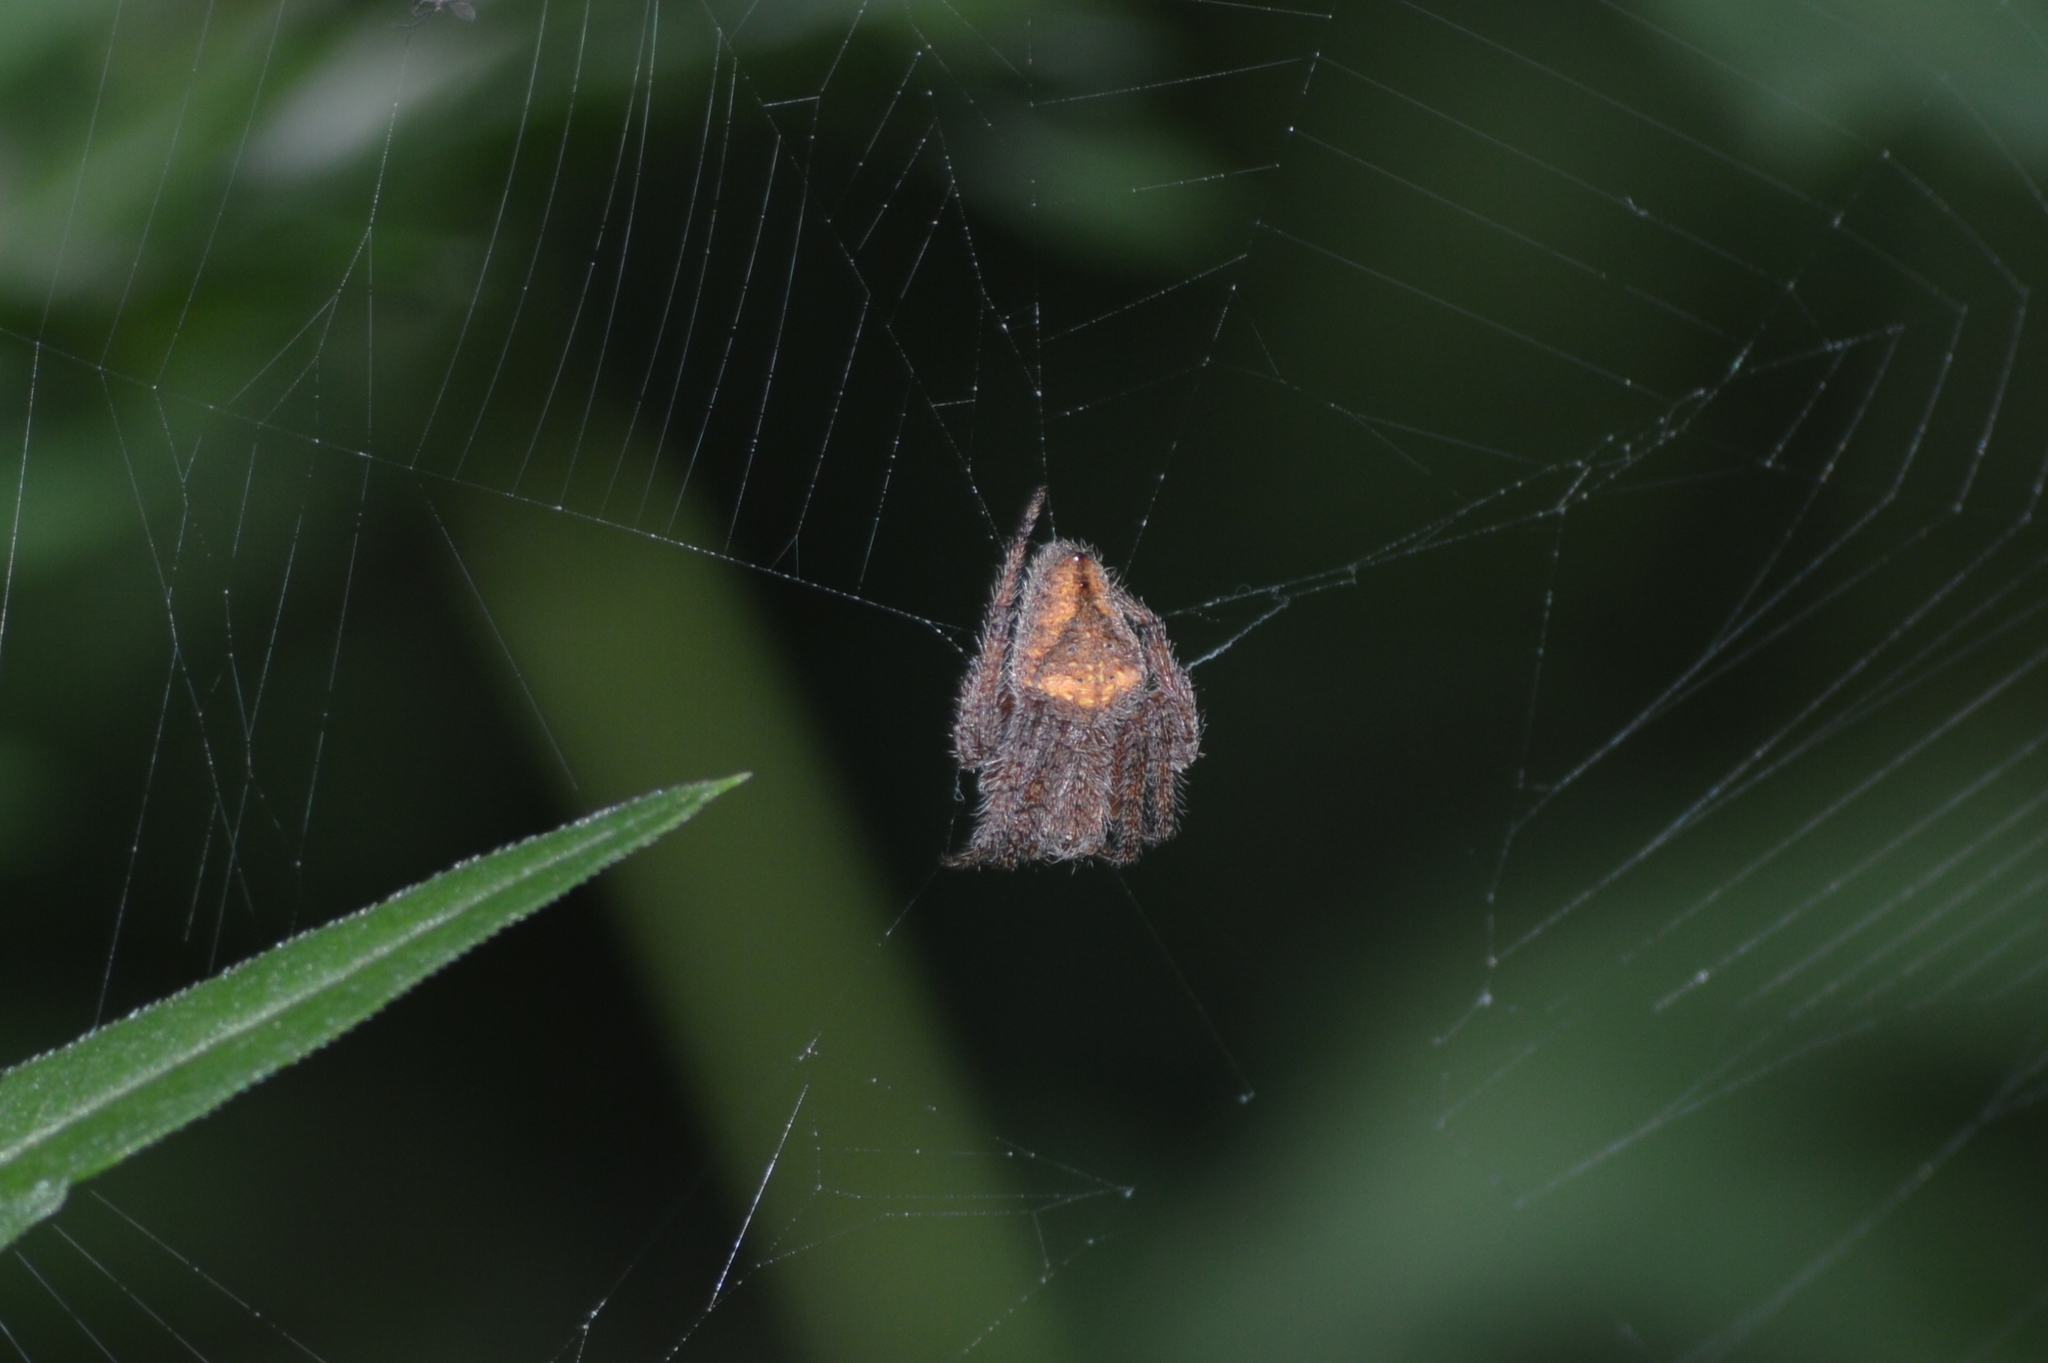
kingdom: Animalia
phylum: Arthropoda
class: Arachnida
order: Araneae
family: Araneidae
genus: Eriophora
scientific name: Eriophora edax
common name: Orb weavers
